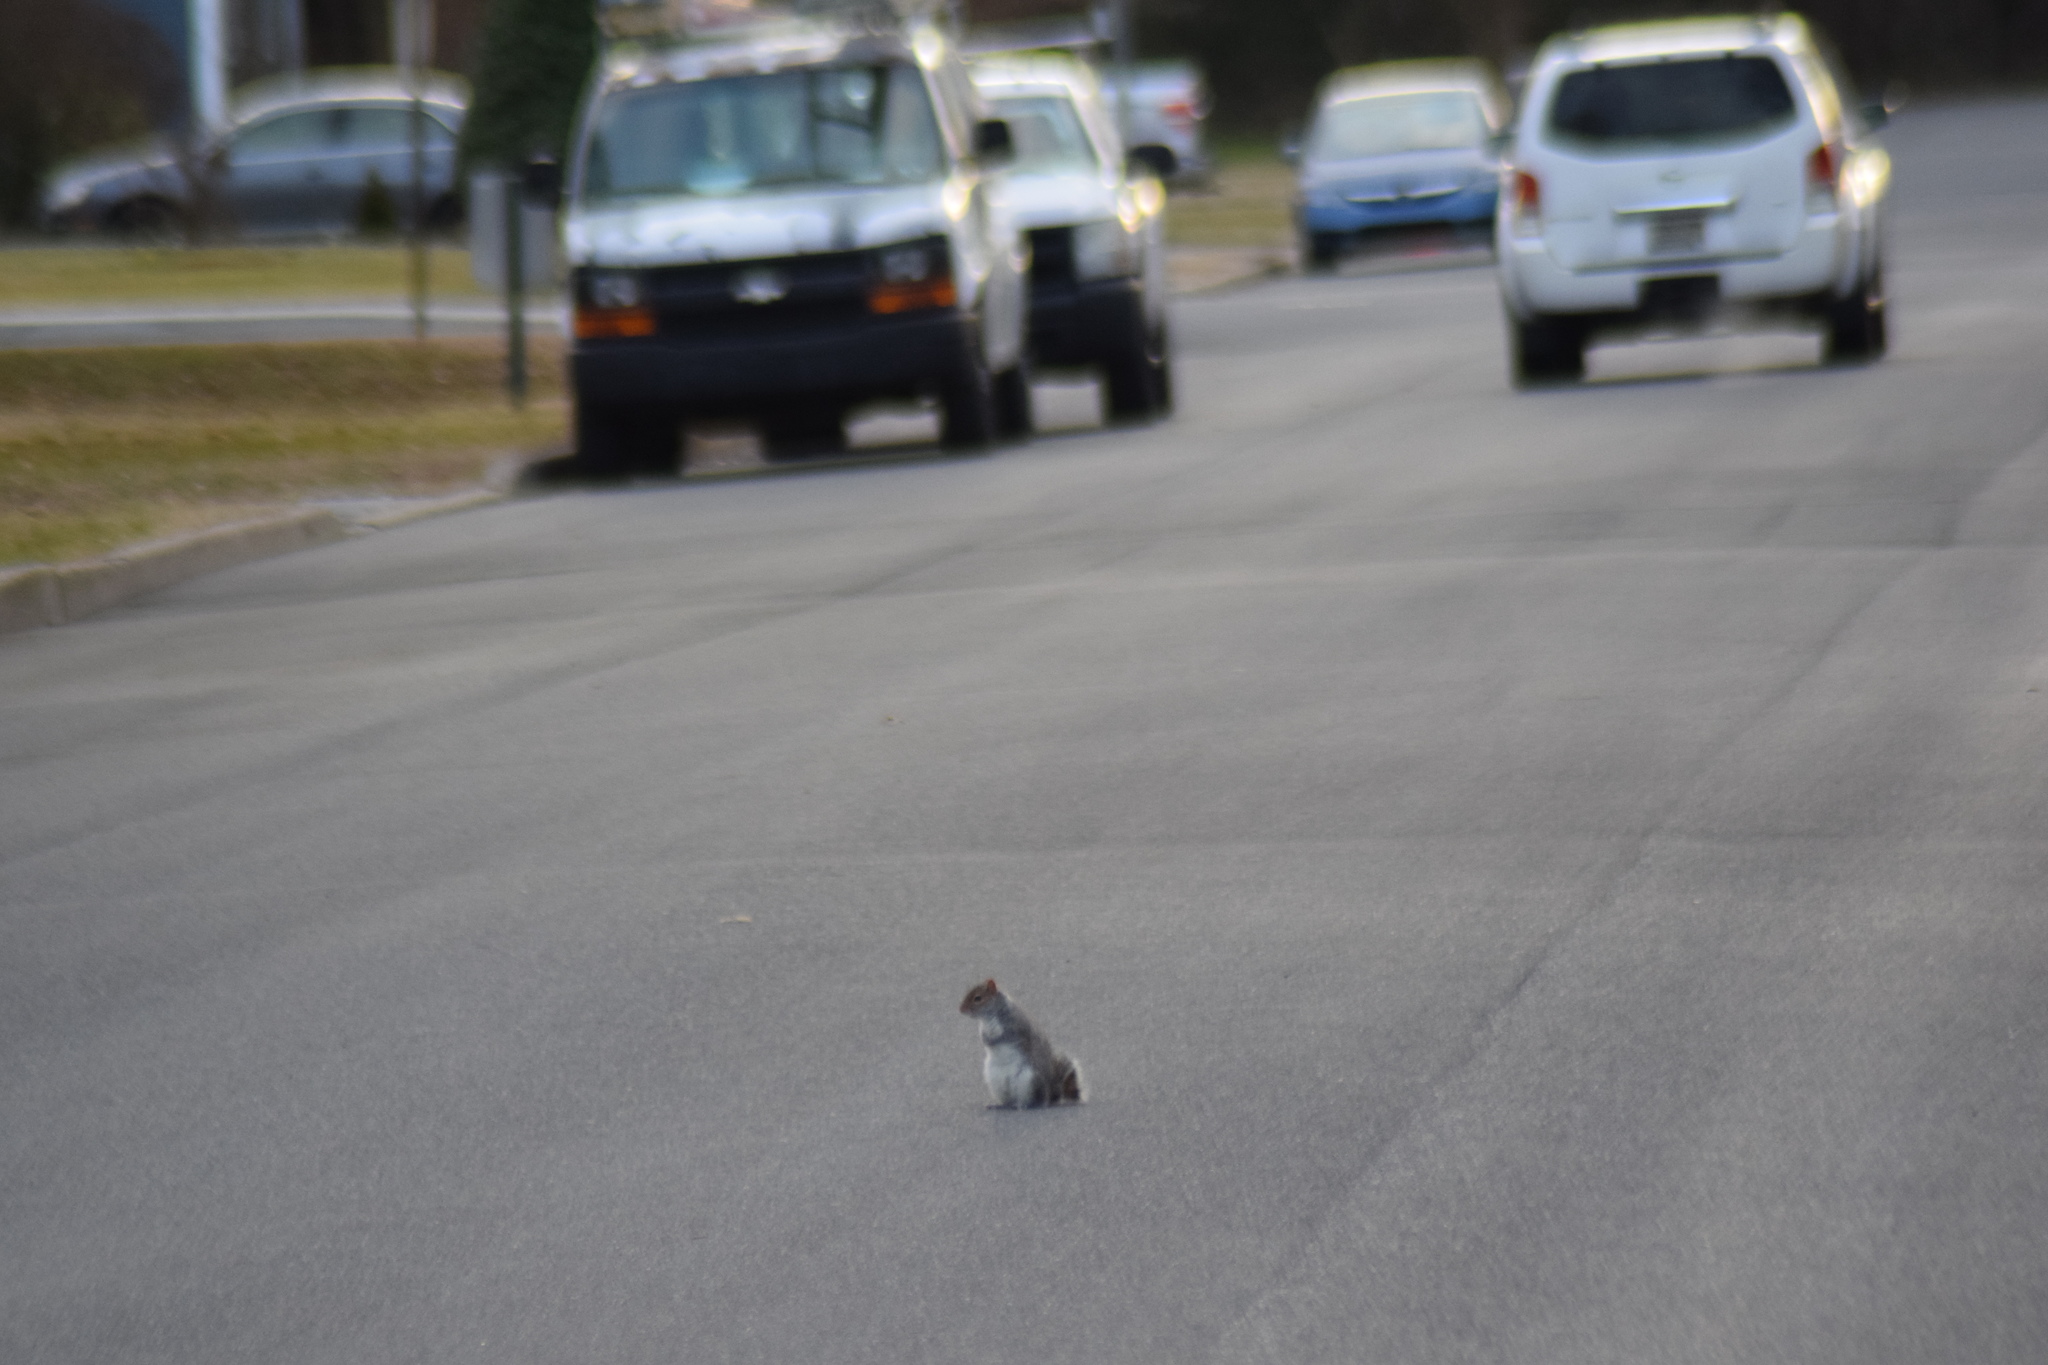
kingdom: Animalia
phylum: Chordata
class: Mammalia
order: Rodentia
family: Sciuridae
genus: Sciurus
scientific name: Sciurus carolinensis
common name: Eastern gray squirrel
